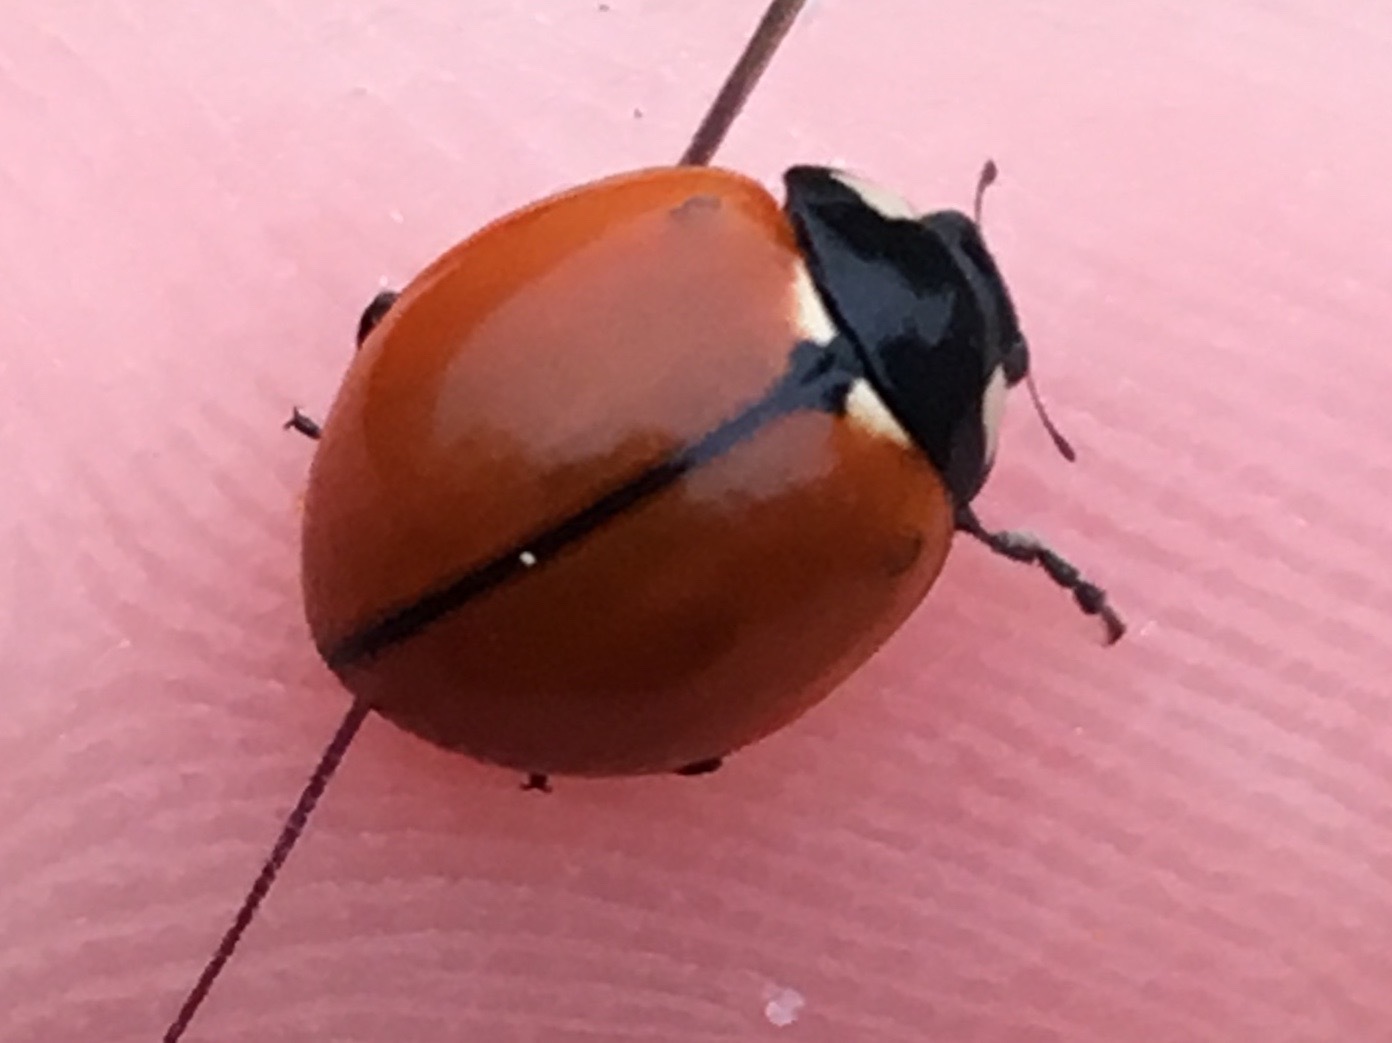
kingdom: Animalia
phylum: Arthropoda
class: Insecta
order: Coleoptera
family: Coccinellidae
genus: Coccinella
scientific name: Coccinella californica
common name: Lady beetle
